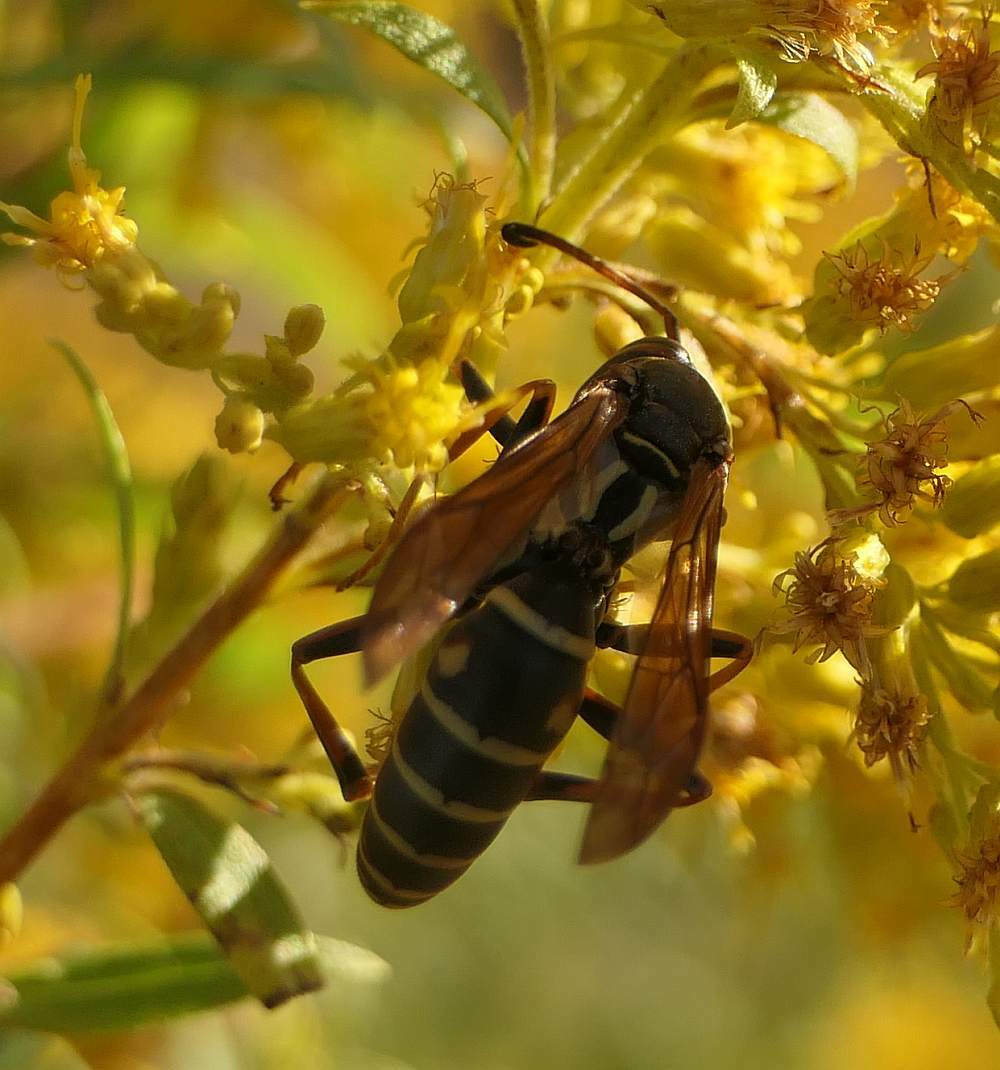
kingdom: Animalia
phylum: Arthropoda
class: Insecta
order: Hymenoptera
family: Eumenidae
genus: Polistes
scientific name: Polistes fuscatus
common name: Dark paper wasp
